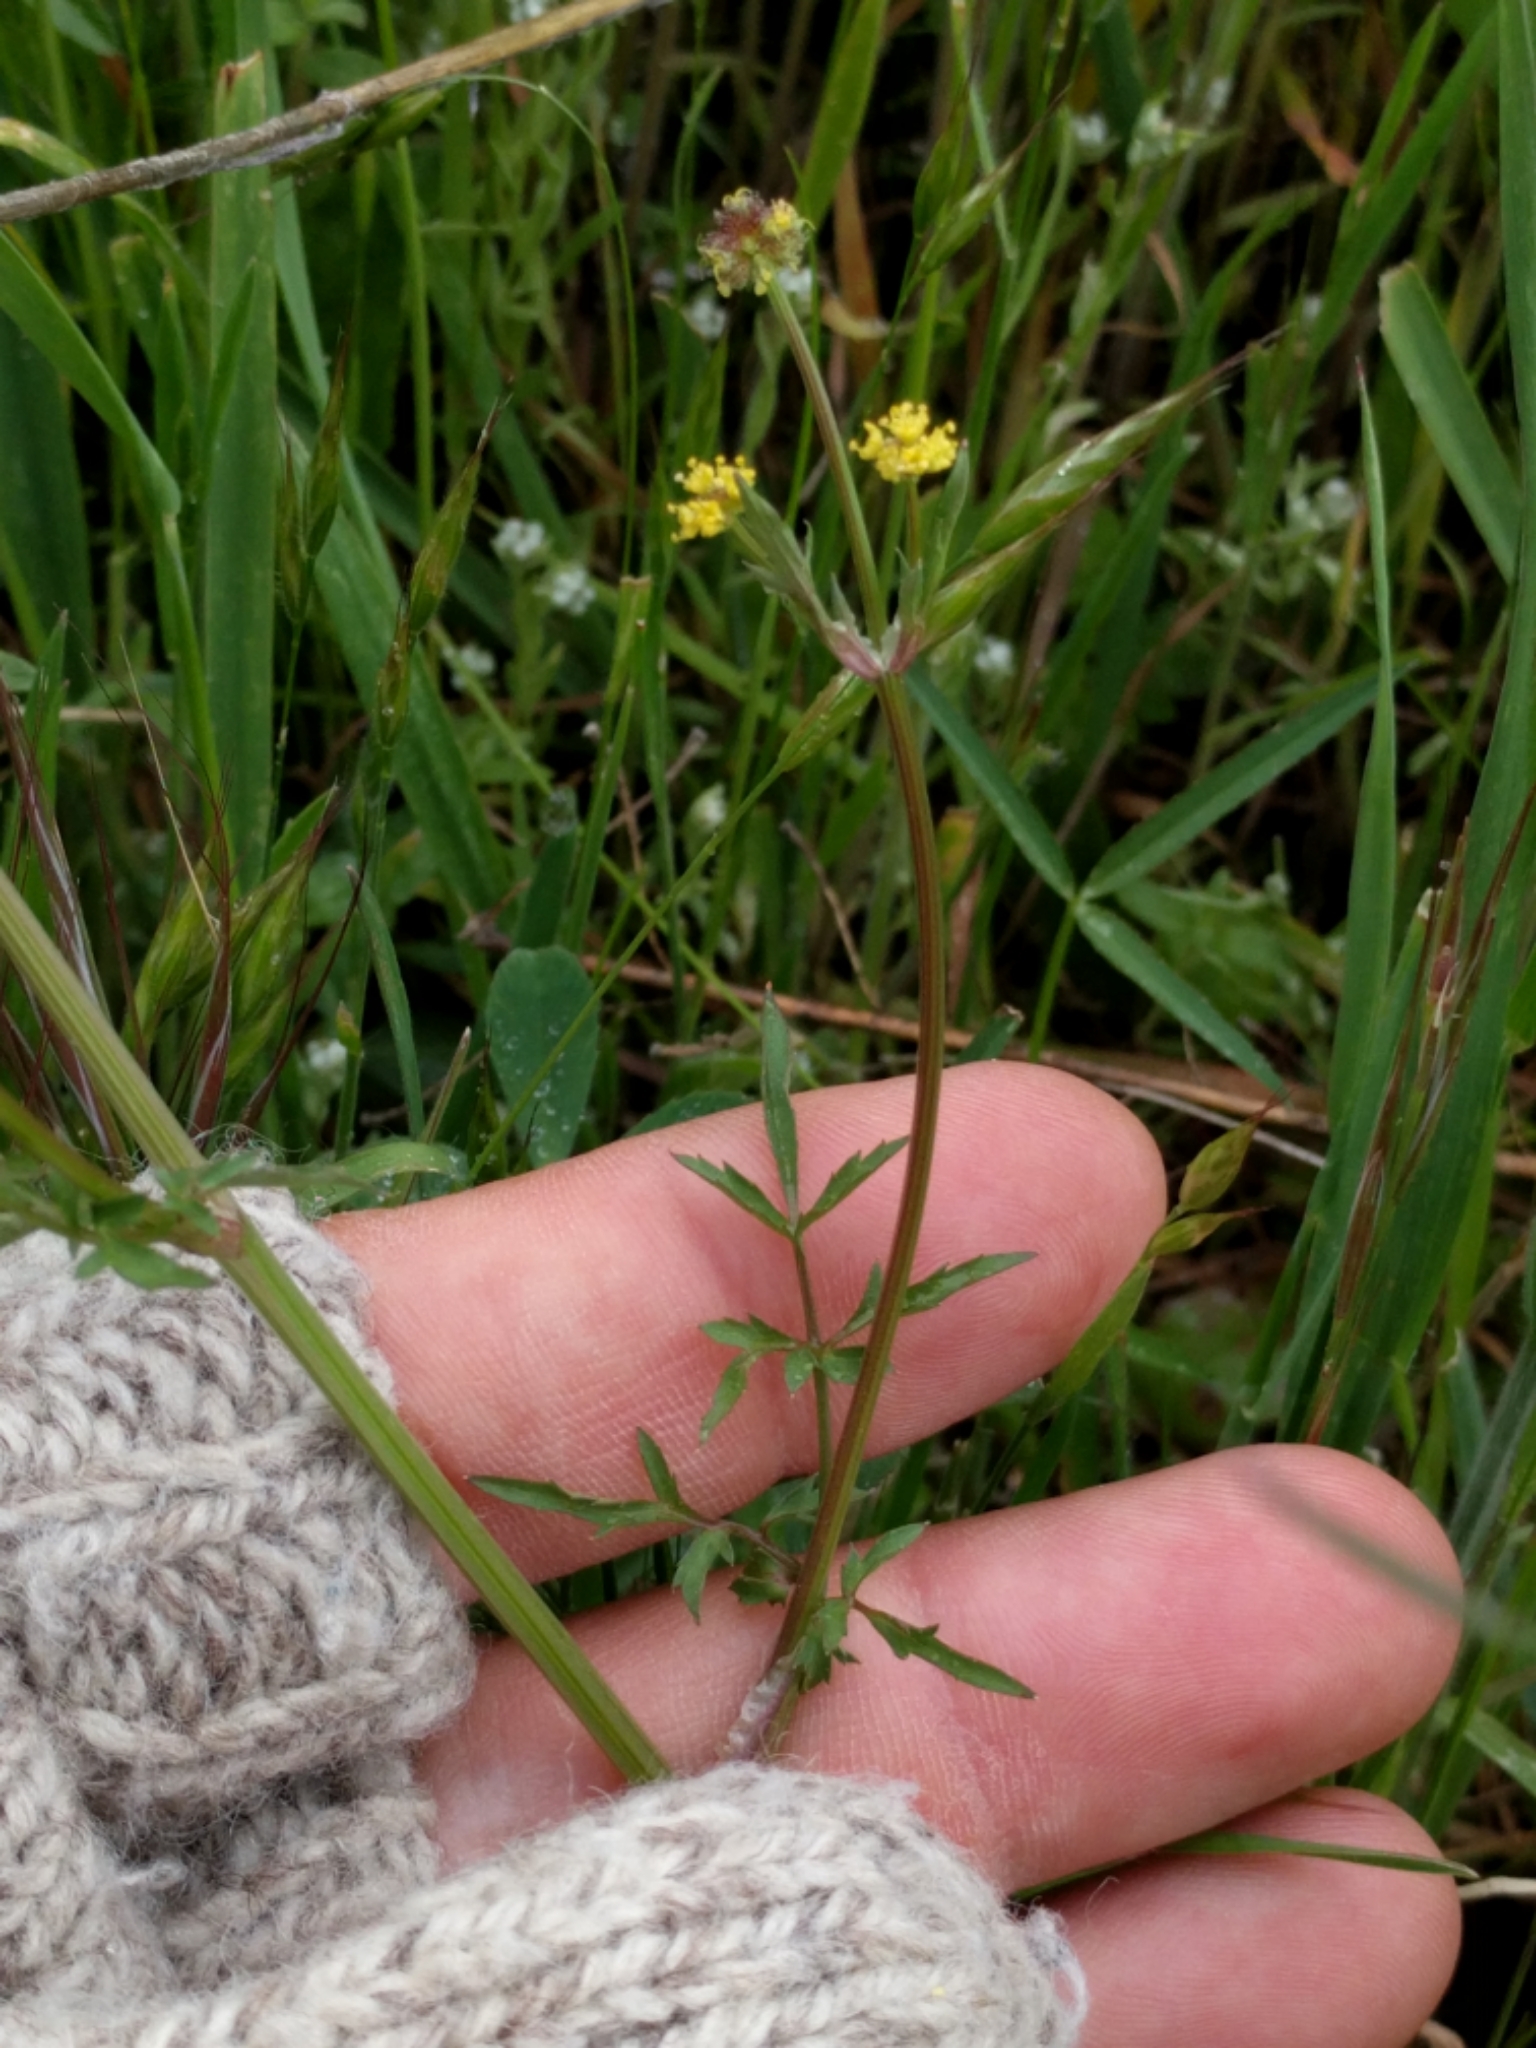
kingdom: Plantae
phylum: Tracheophyta
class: Magnoliopsida
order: Apiales
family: Apiaceae
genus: Sanicula
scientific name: Sanicula bipinnata
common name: Poison sanicle
